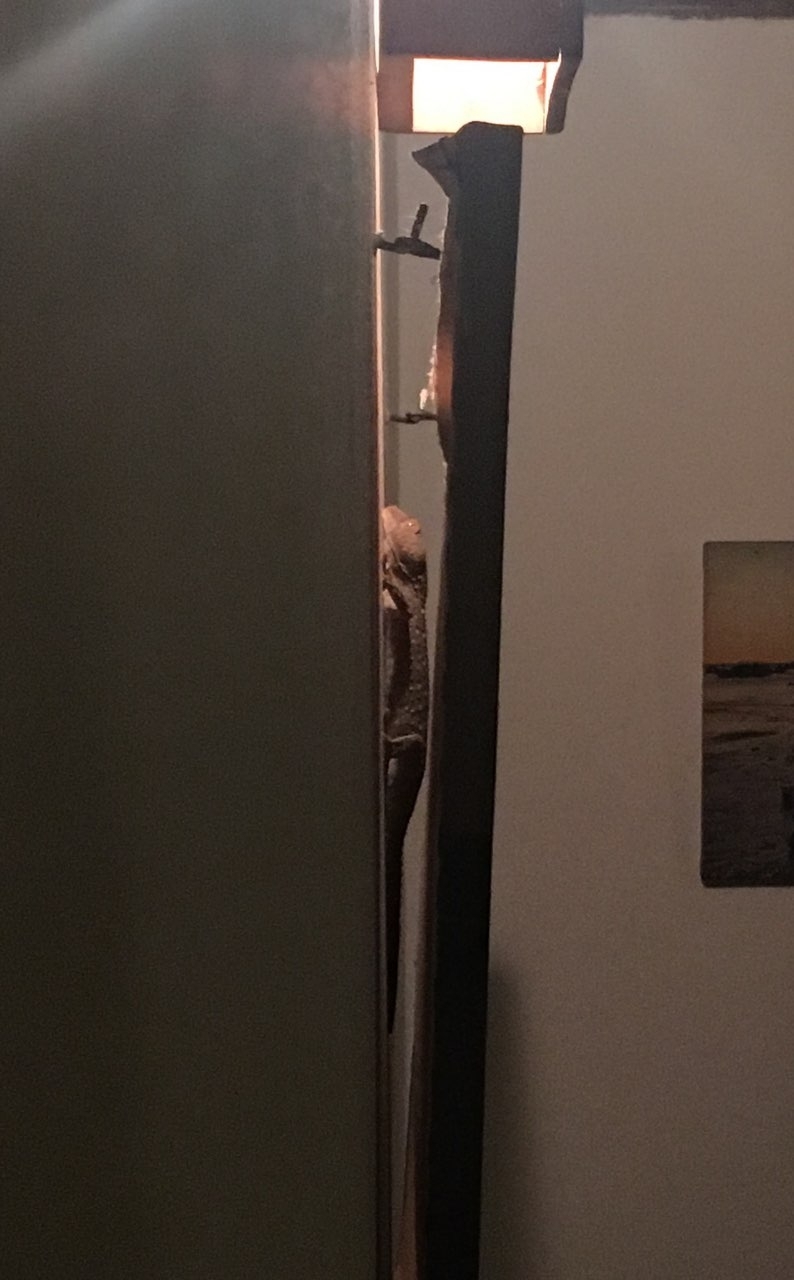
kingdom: Animalia
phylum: Chordata
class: Squamata
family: Gekkonidae
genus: Gekko
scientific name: Gekko gecko
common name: Tokay gecko
